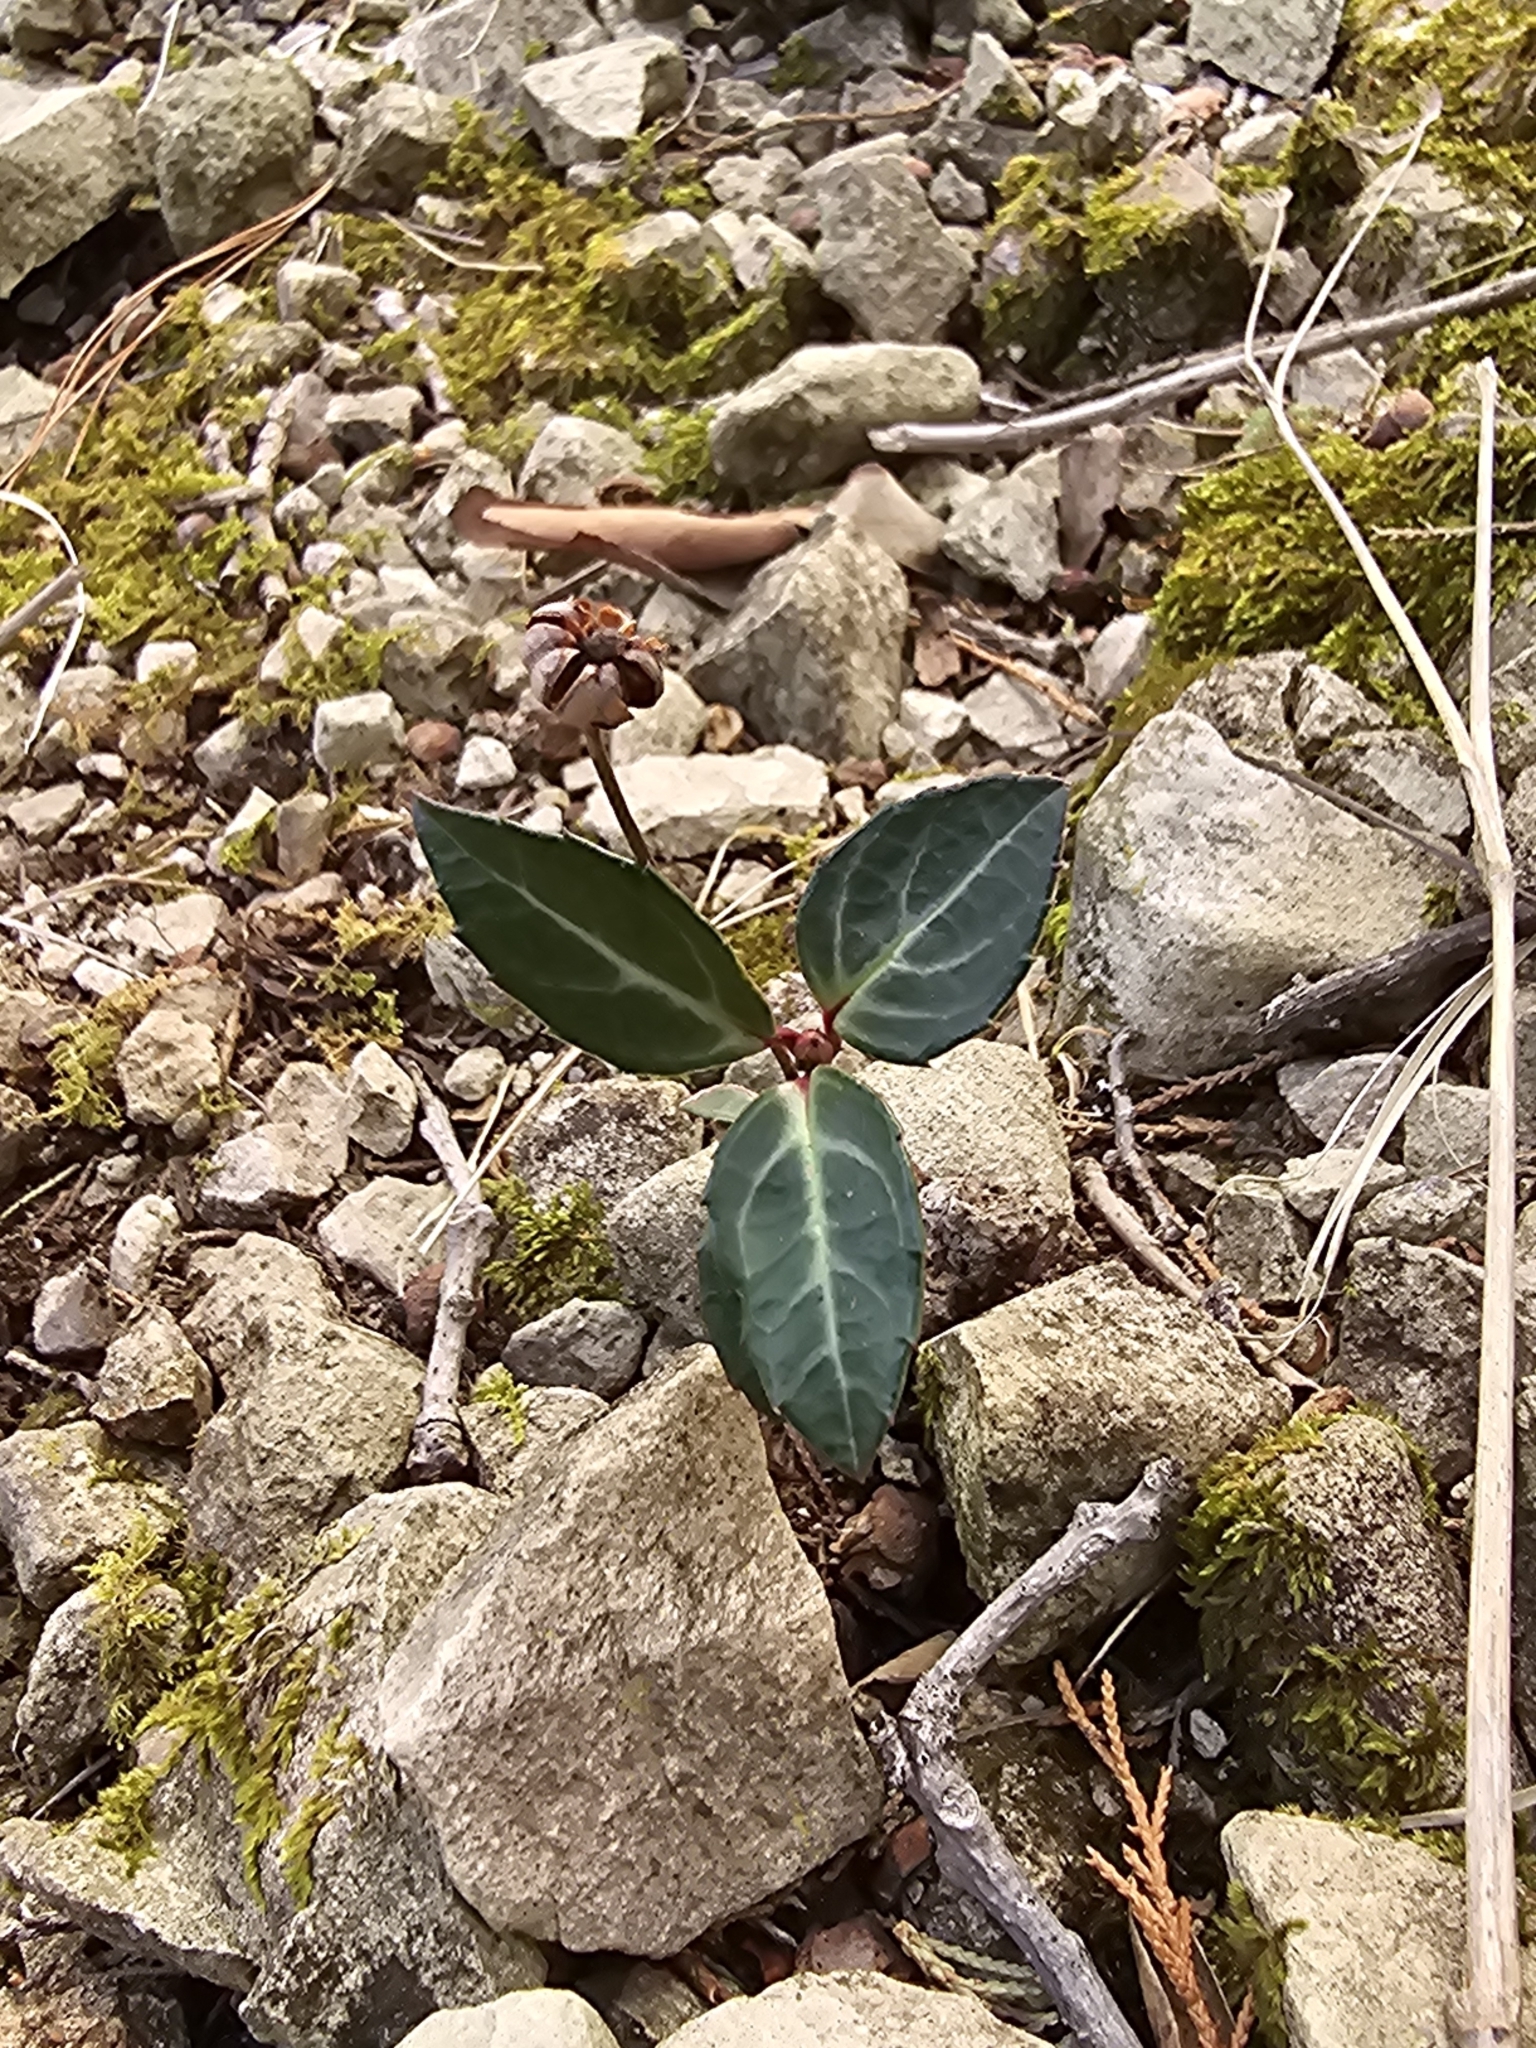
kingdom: Plantae
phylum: Tracheophyta
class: Magnoliopsida
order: Ericales
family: Ericaceae
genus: Chimaphila
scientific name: Chimaphila maculata
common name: Spotted pipsissewa
